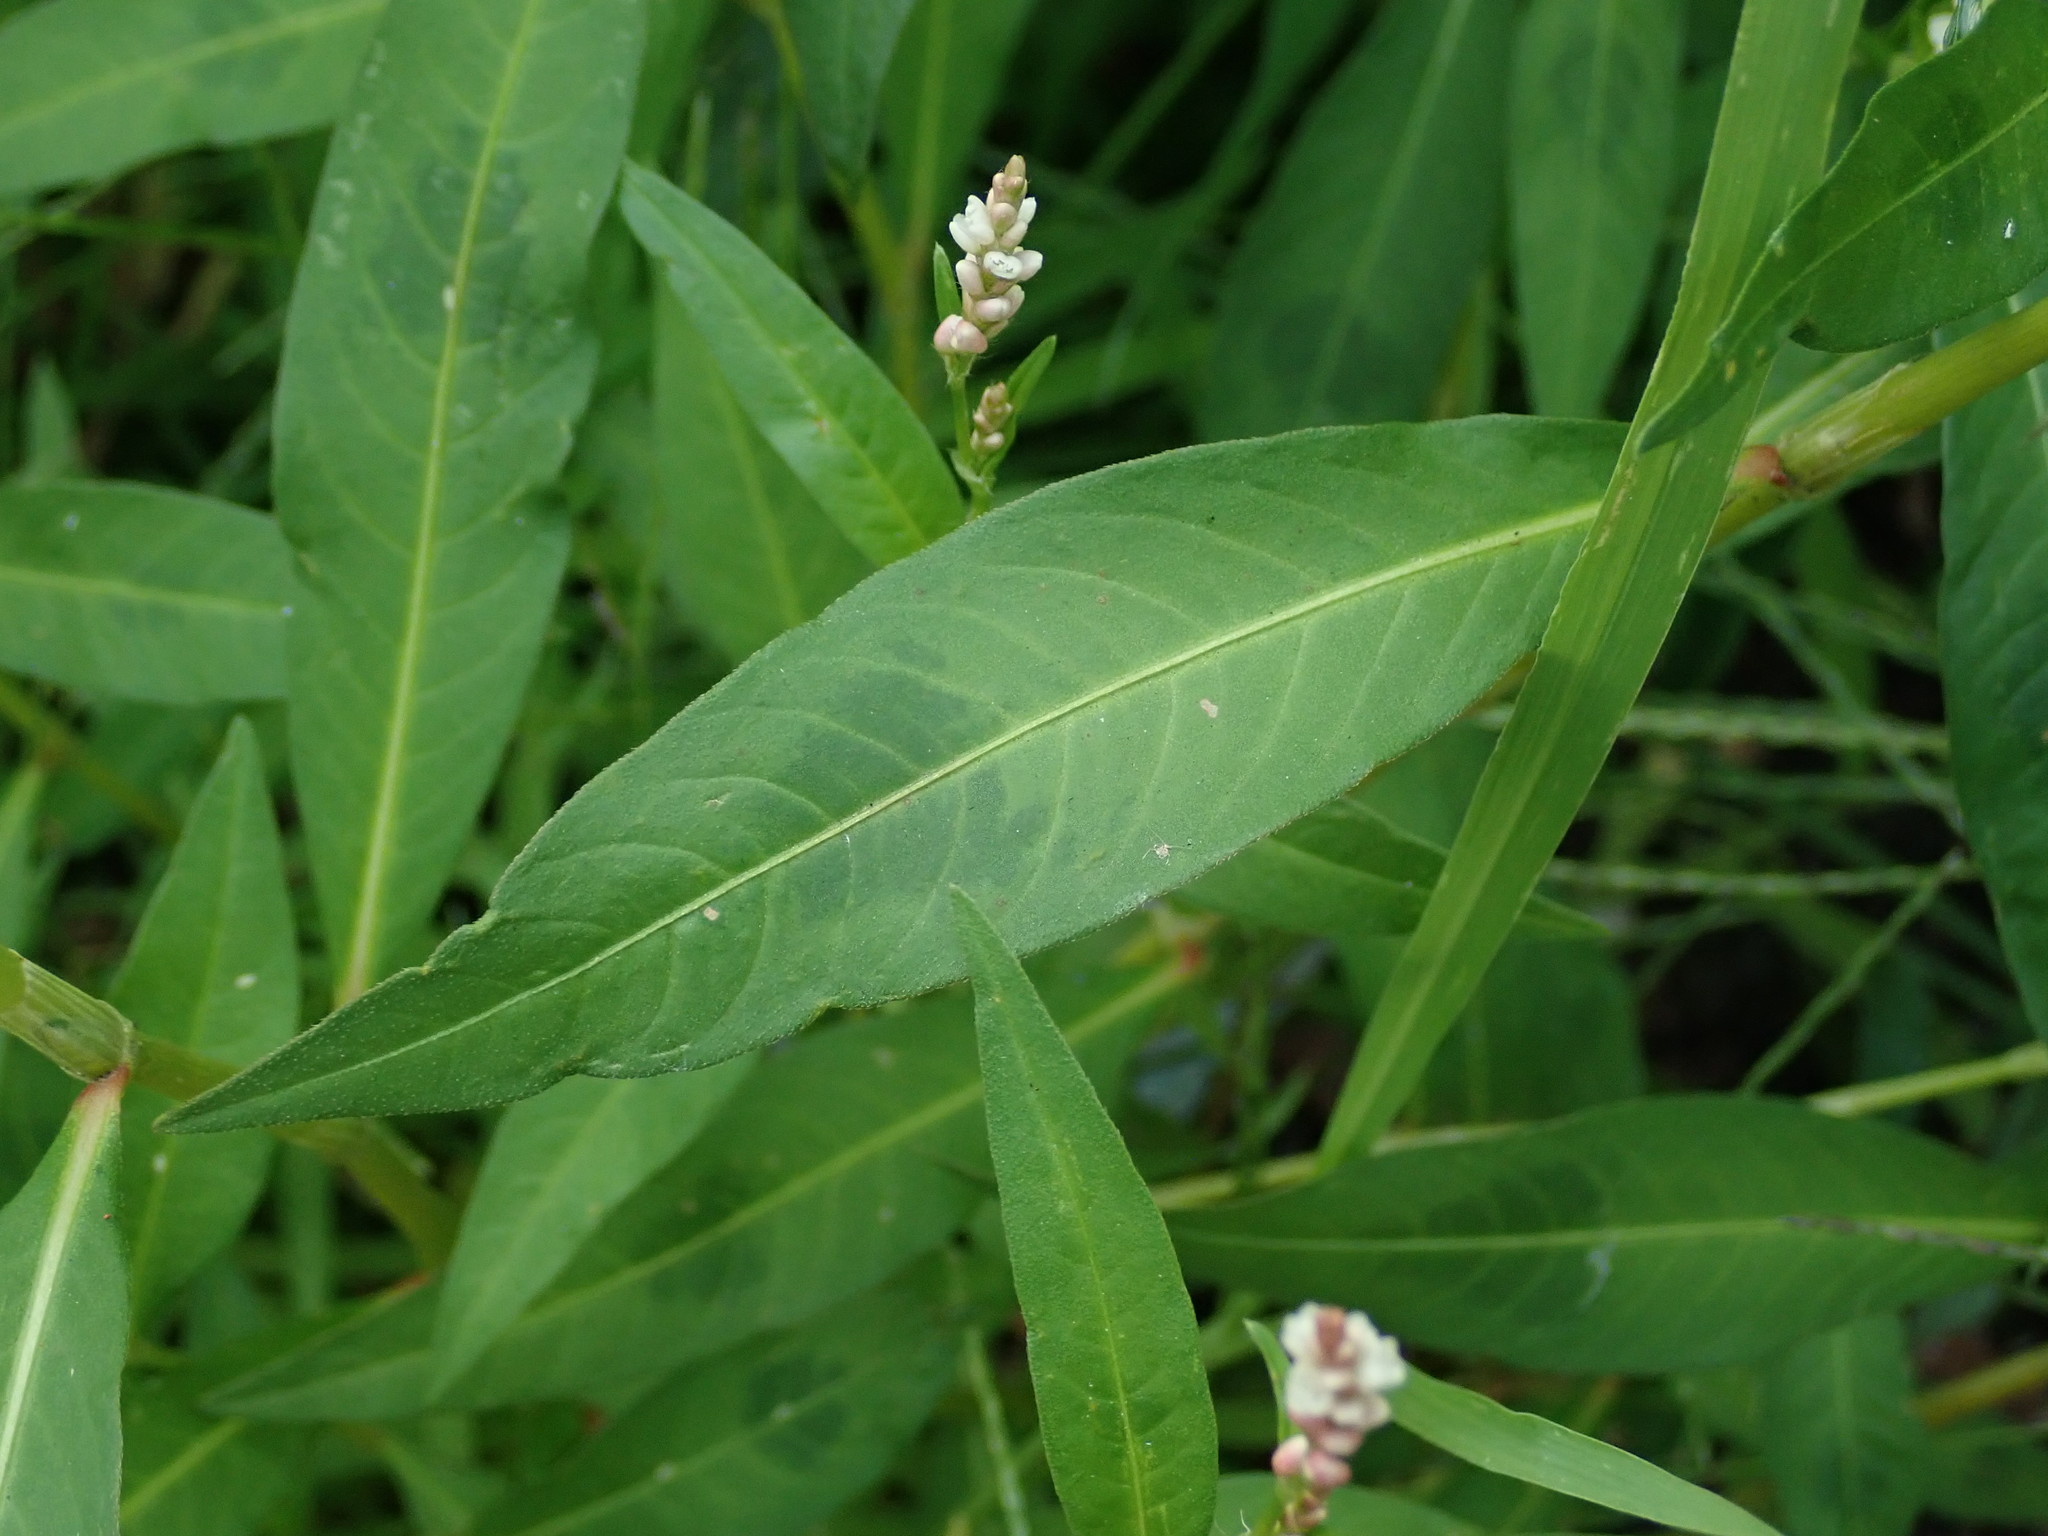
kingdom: Plantae
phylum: Tracheophyta
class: Magnoliopsida
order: Caryophyllales
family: Polygonaceae
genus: Persicaria
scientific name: Persicaria maculosa
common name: Redshank
